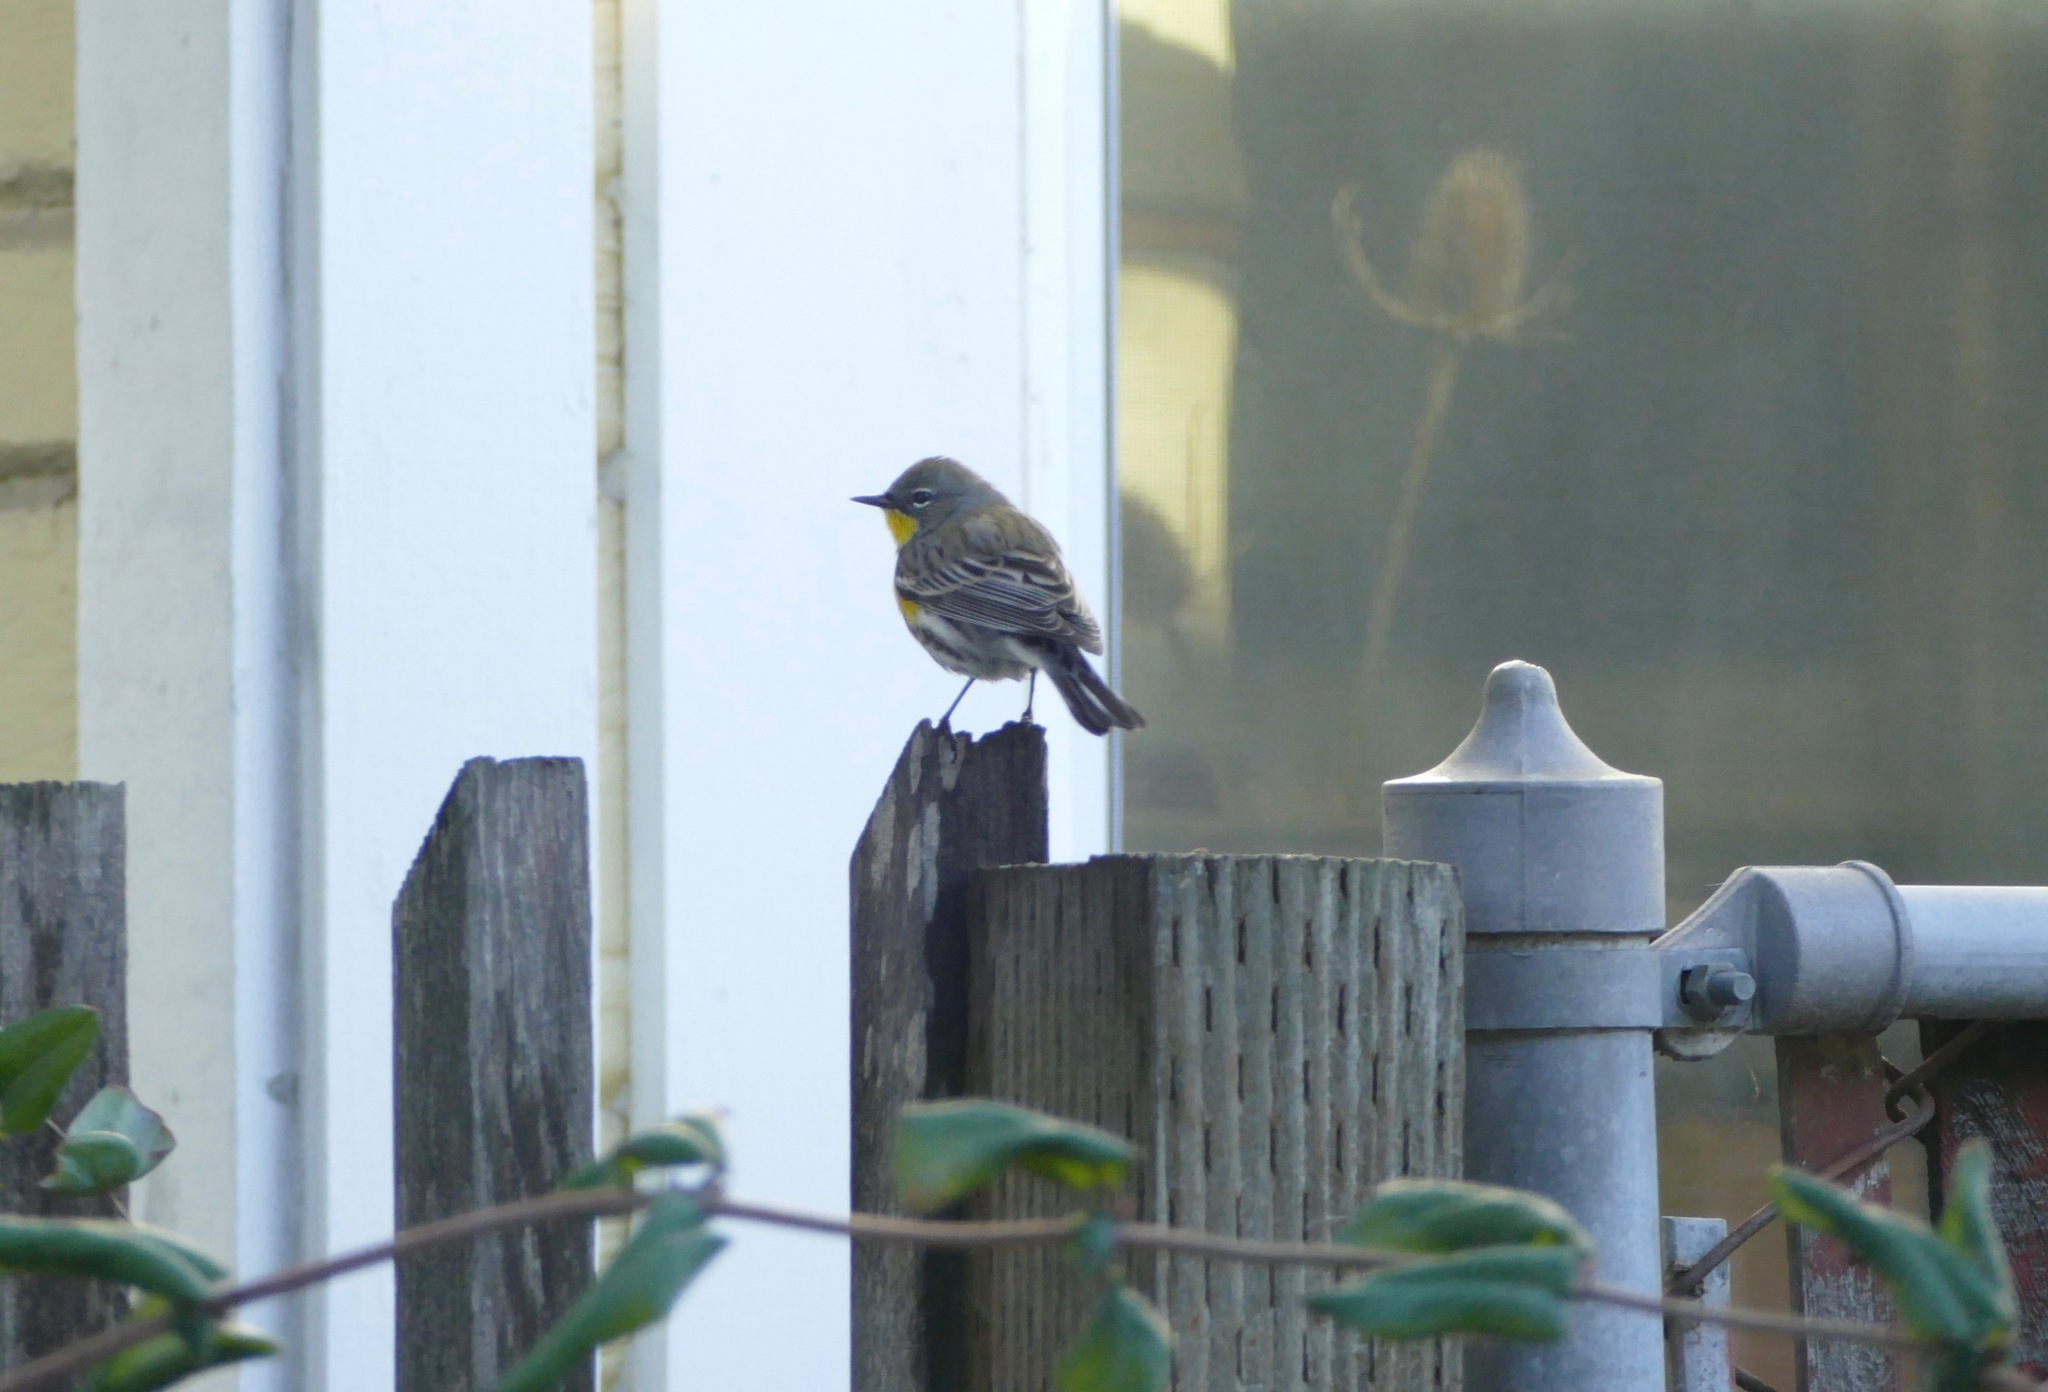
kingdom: Animalia
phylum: Chordata
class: Aves
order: Passeriformes
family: Parulidae
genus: Setophaga
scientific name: Setophaga coronata
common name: Myrtle warbler
